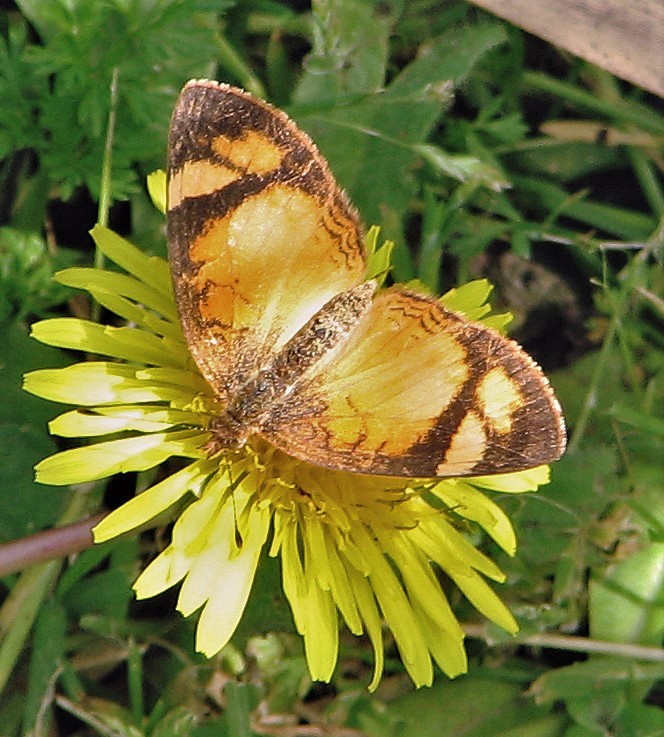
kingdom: Animalia
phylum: Arthropoda
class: Insecta
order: Lepidoptera
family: Nymphalidae
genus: Tegosa
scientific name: Tegosa claudina
